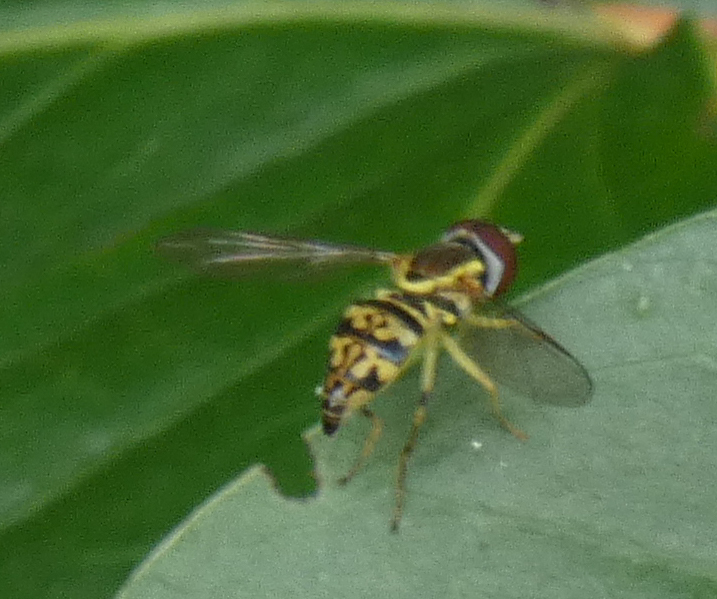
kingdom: Animalia
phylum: Arthropoda
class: Insecta
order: Diptera
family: Syrphidae
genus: Toxomerus
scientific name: Toxomerus geminatus
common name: Eastern calligrapher
